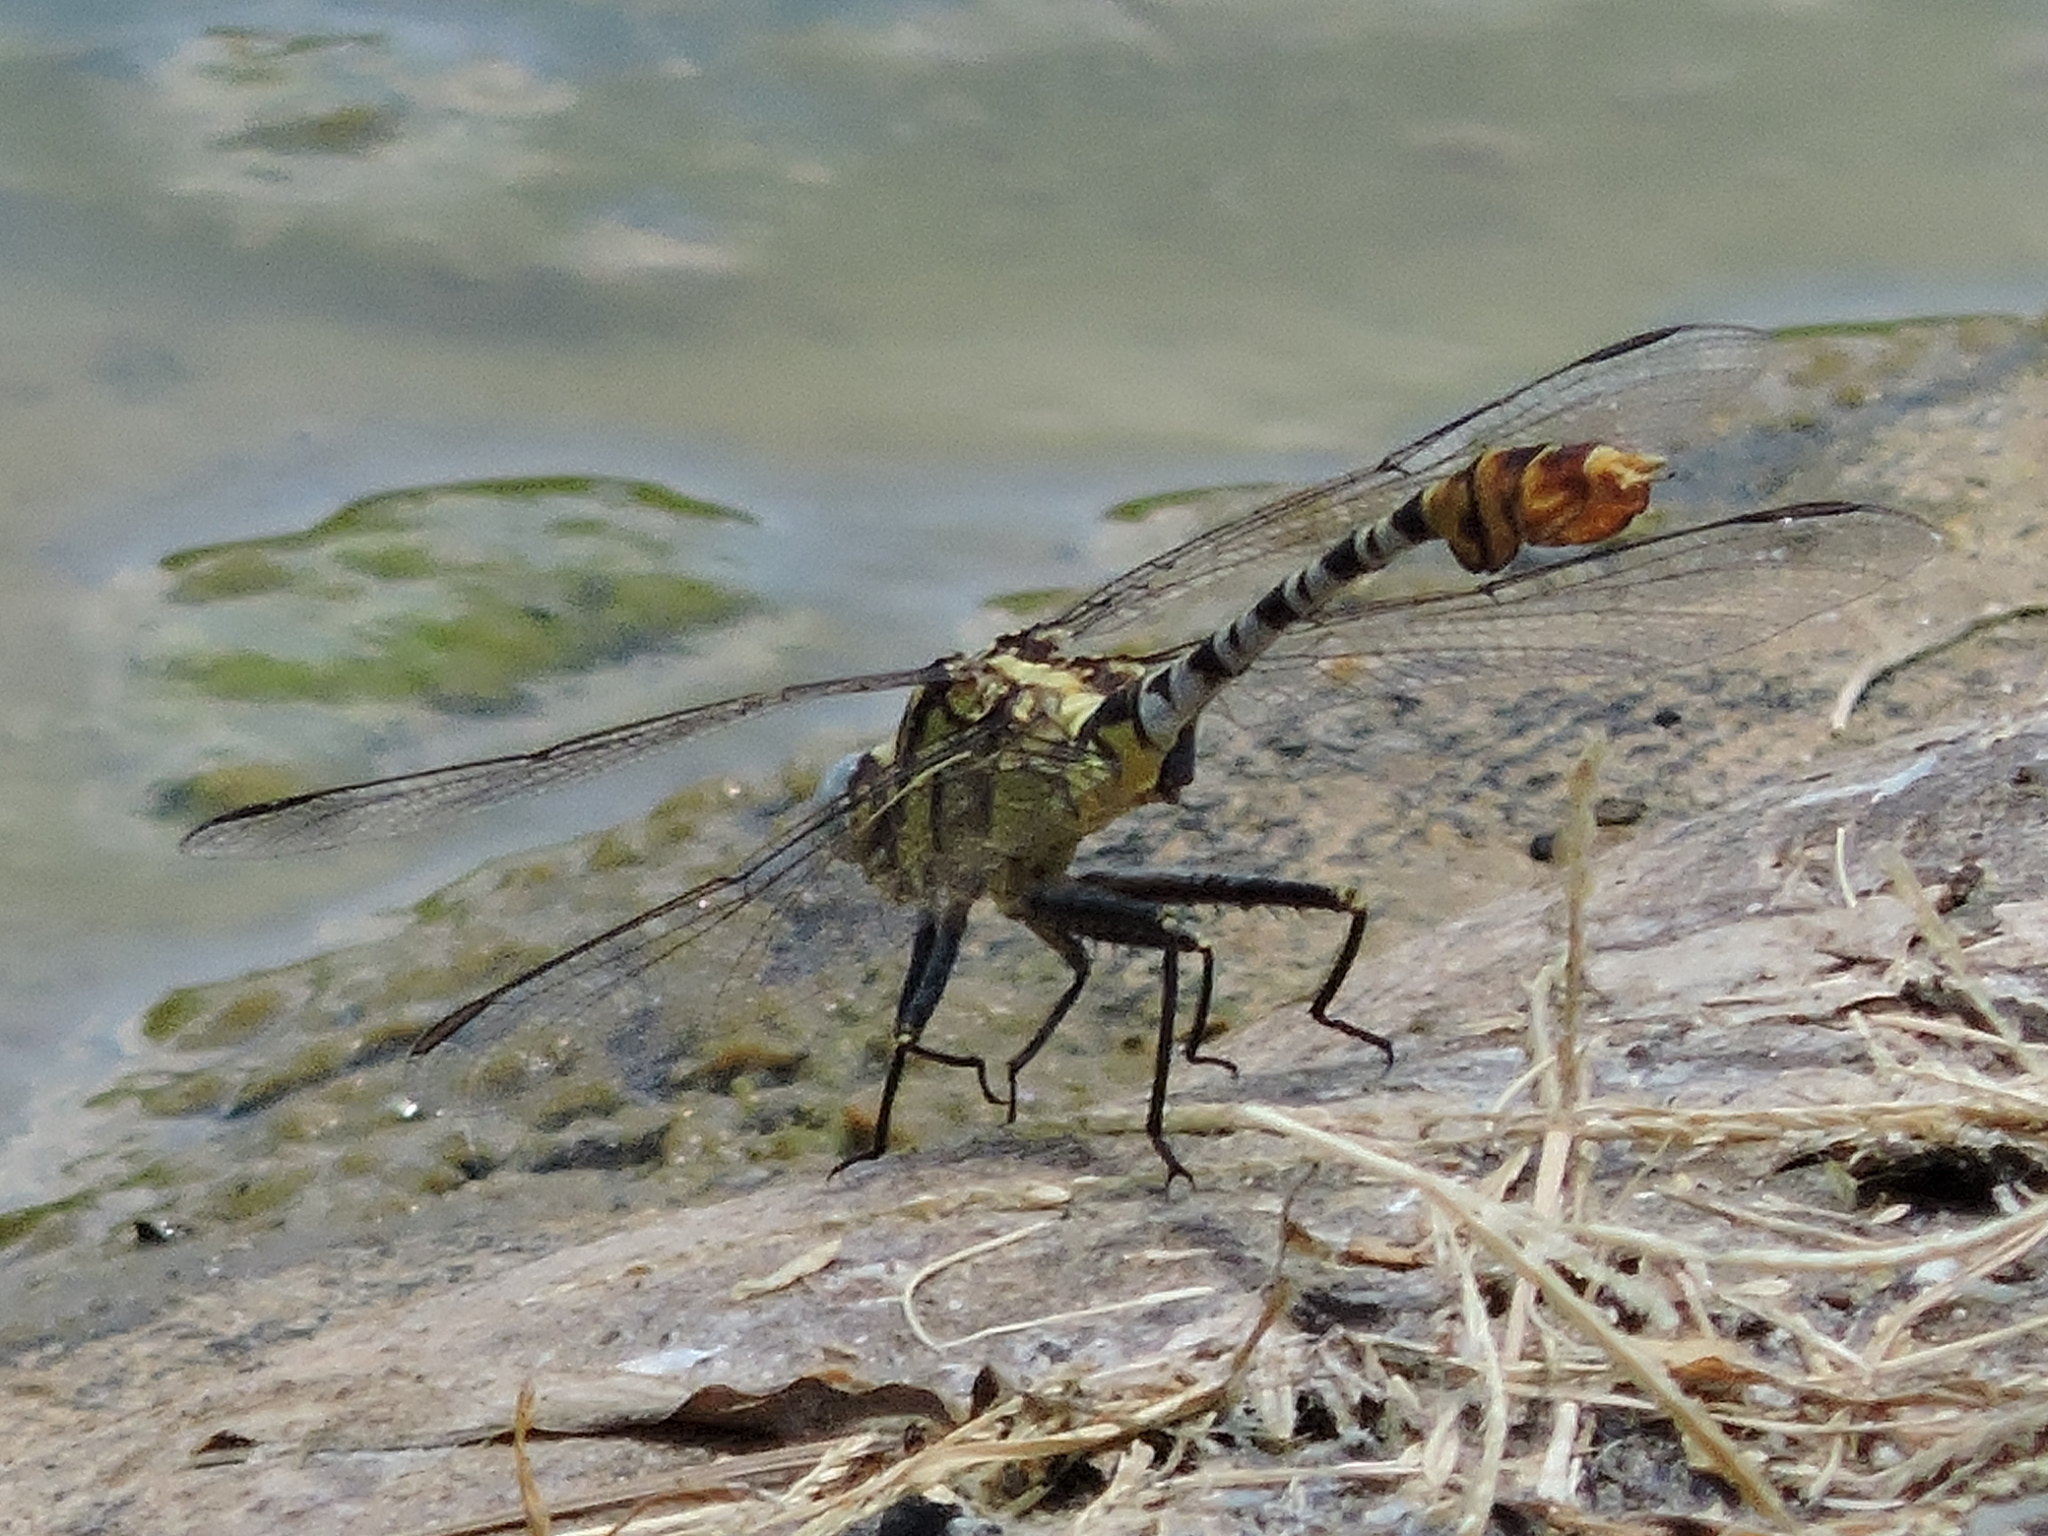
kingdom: Animalia
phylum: Arthropoda
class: Insecta
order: Odonata
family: Gomphidae
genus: Dromogomphus
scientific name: Dromogomphus spoliatus
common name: Flag-tailed spinyleg
